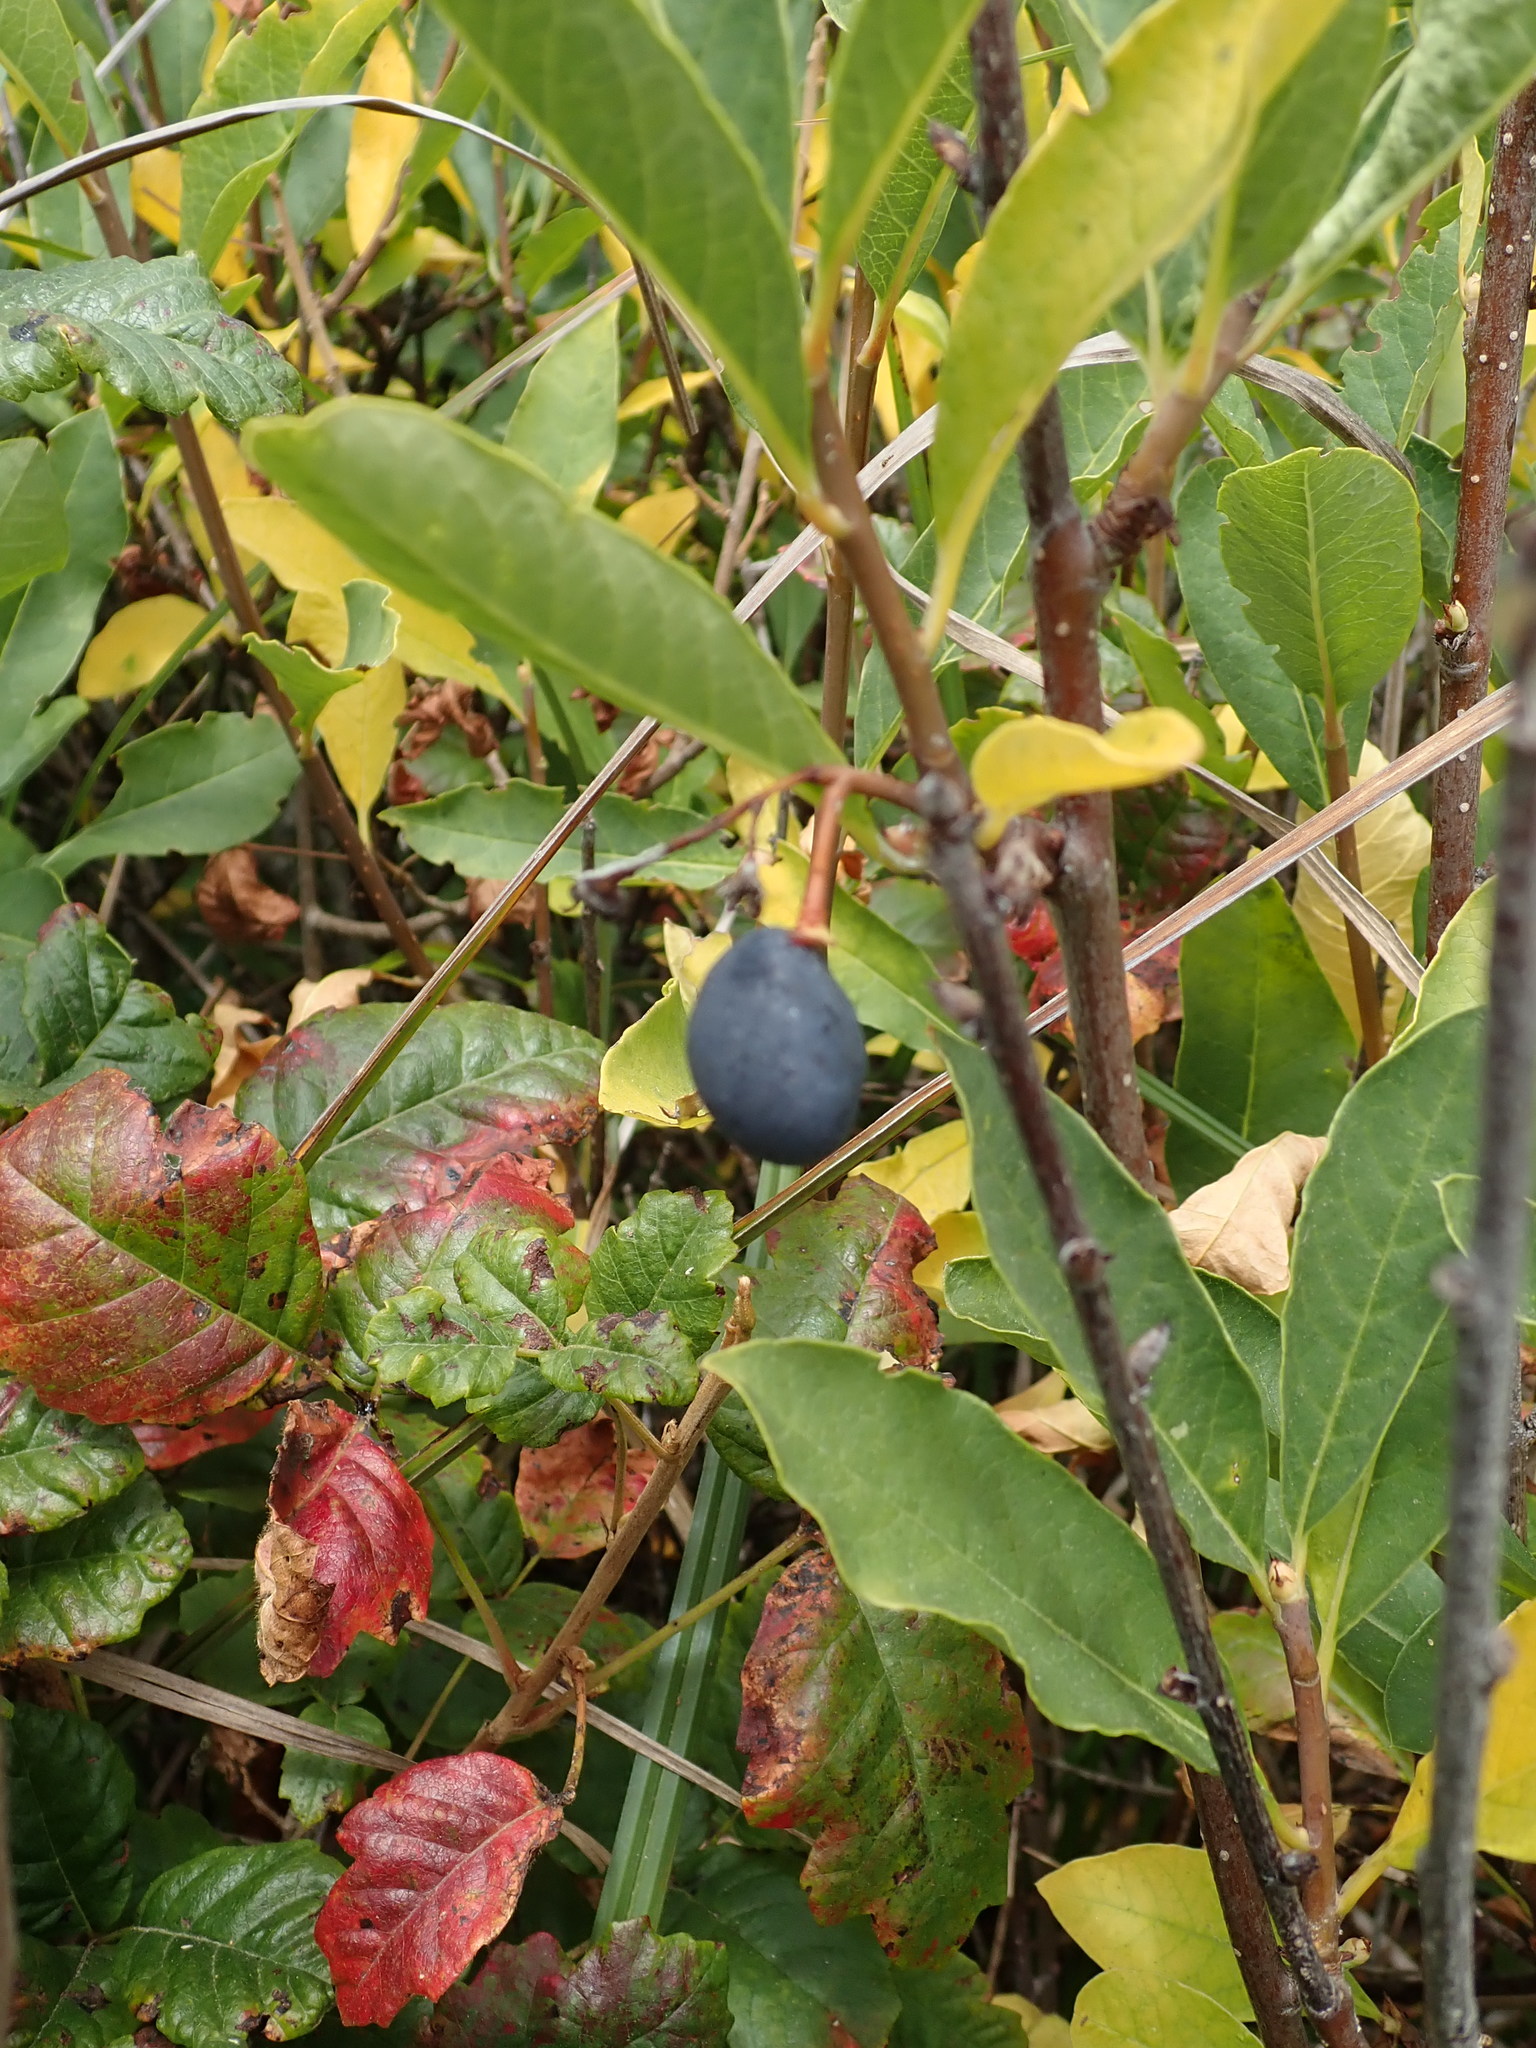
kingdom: Plantae
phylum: Tracheophyta
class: Magnoliopsida
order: Rosales
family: Rosaceae
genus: Oemleria
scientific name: Oemleria cerasiformis
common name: Osoberry
